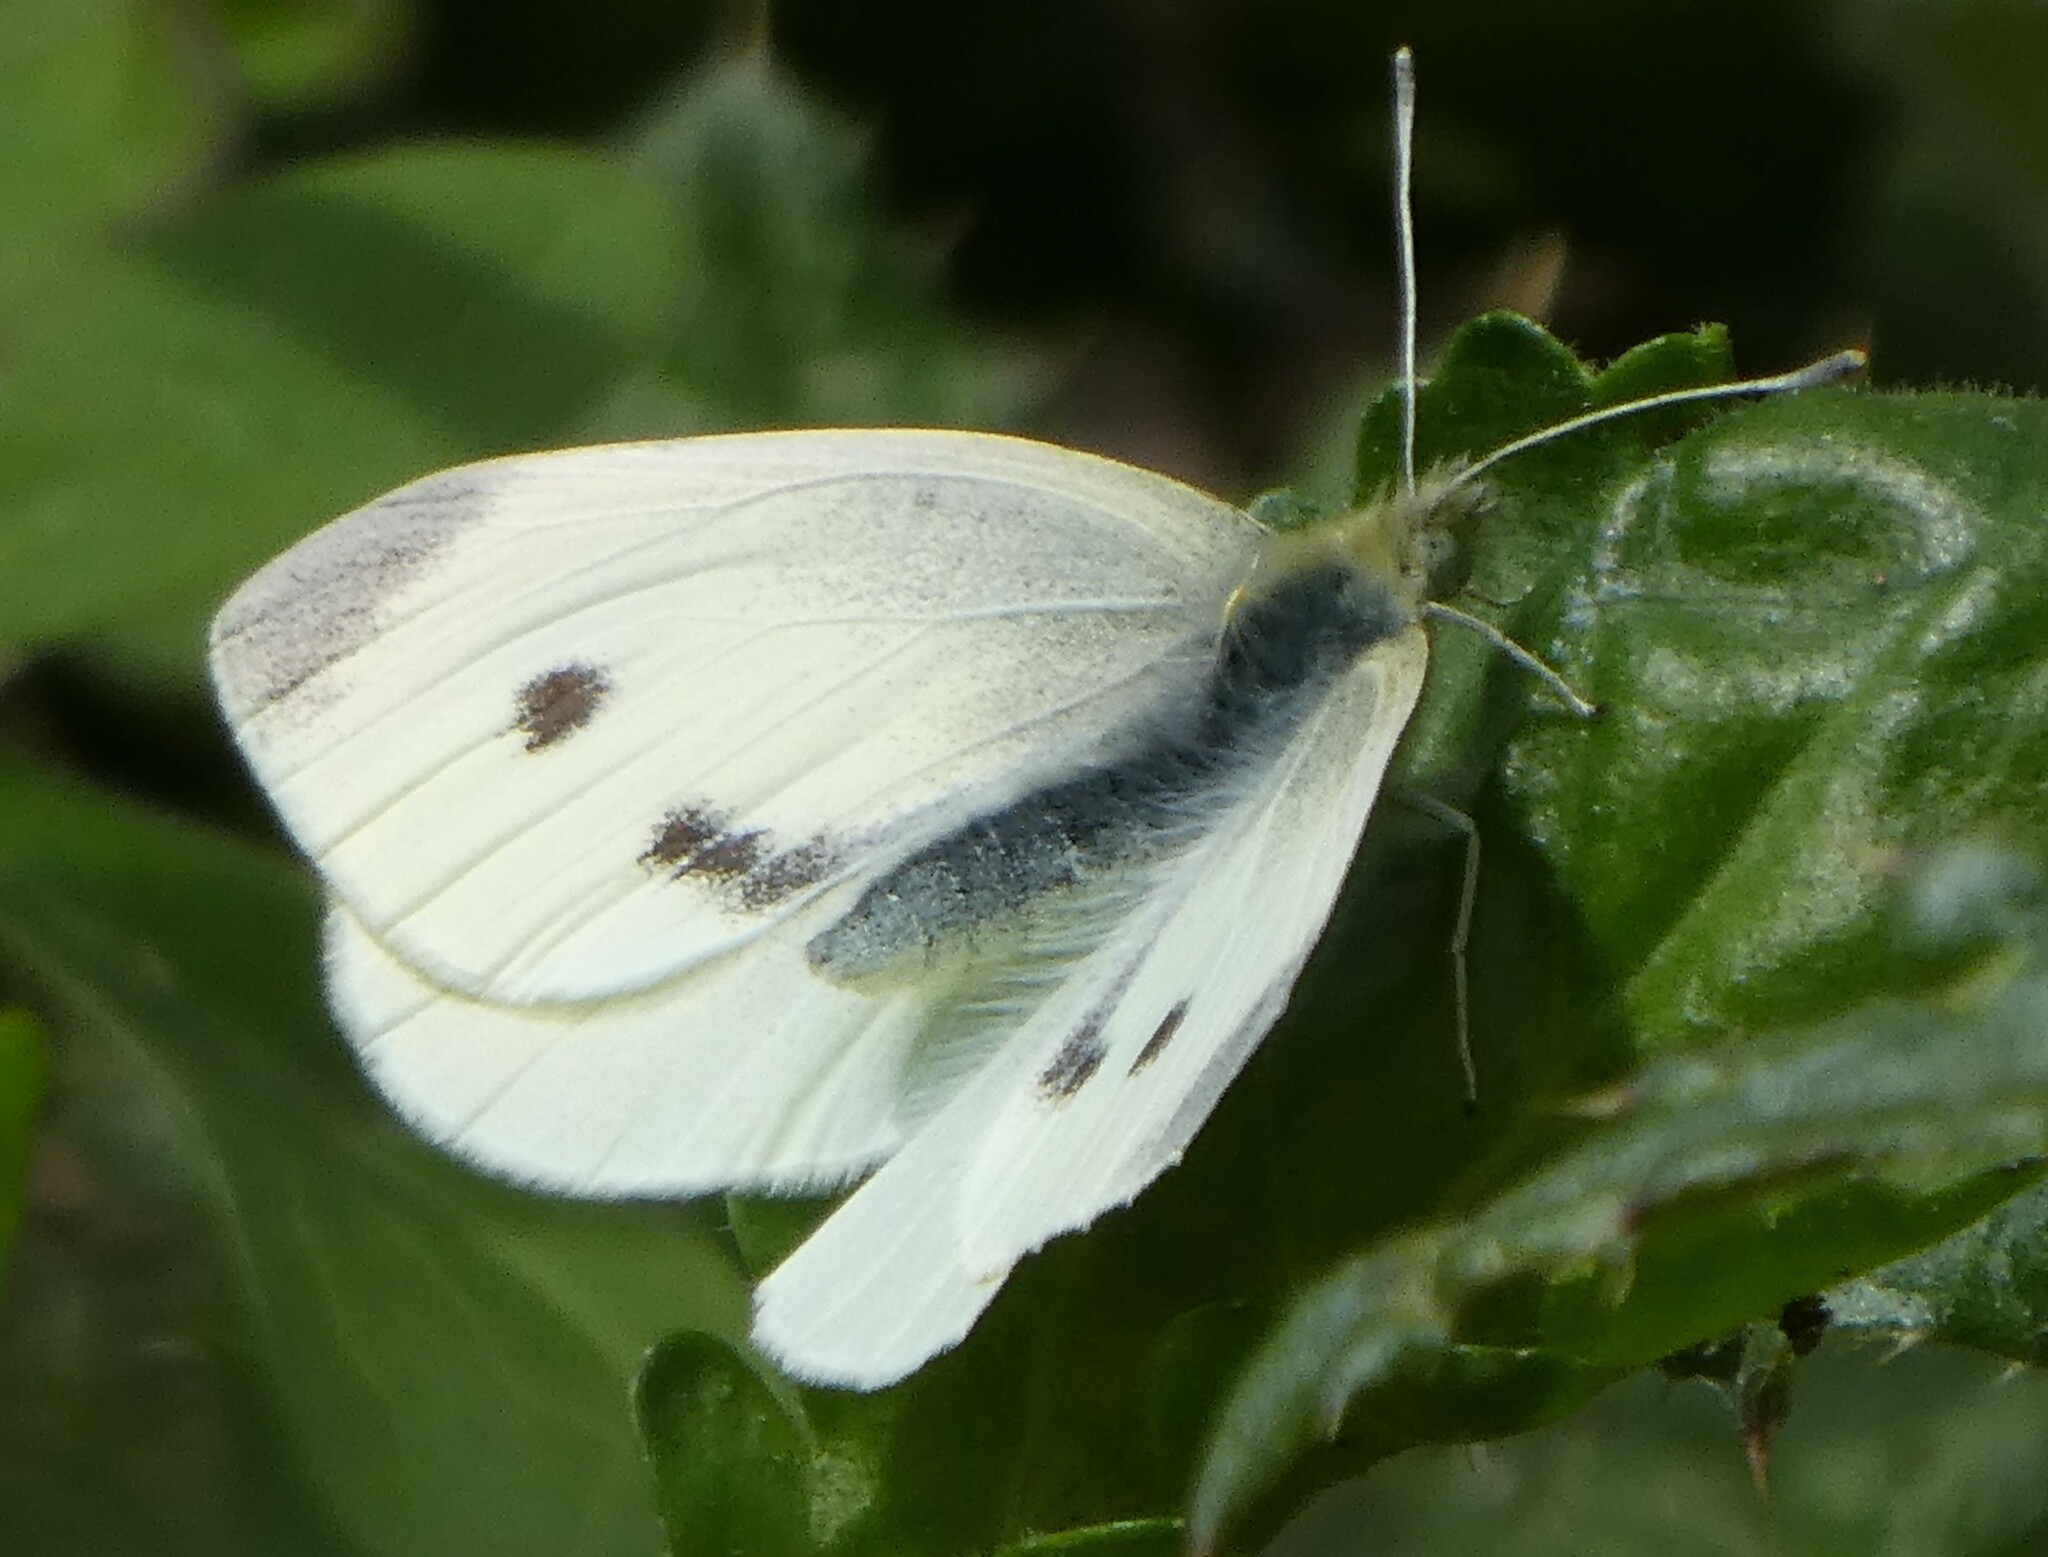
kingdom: Animalia
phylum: Arthropoda
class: Insecta
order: Lepidoptera
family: Pieridae
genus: Pieris
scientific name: Pieris rapae
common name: Small white
